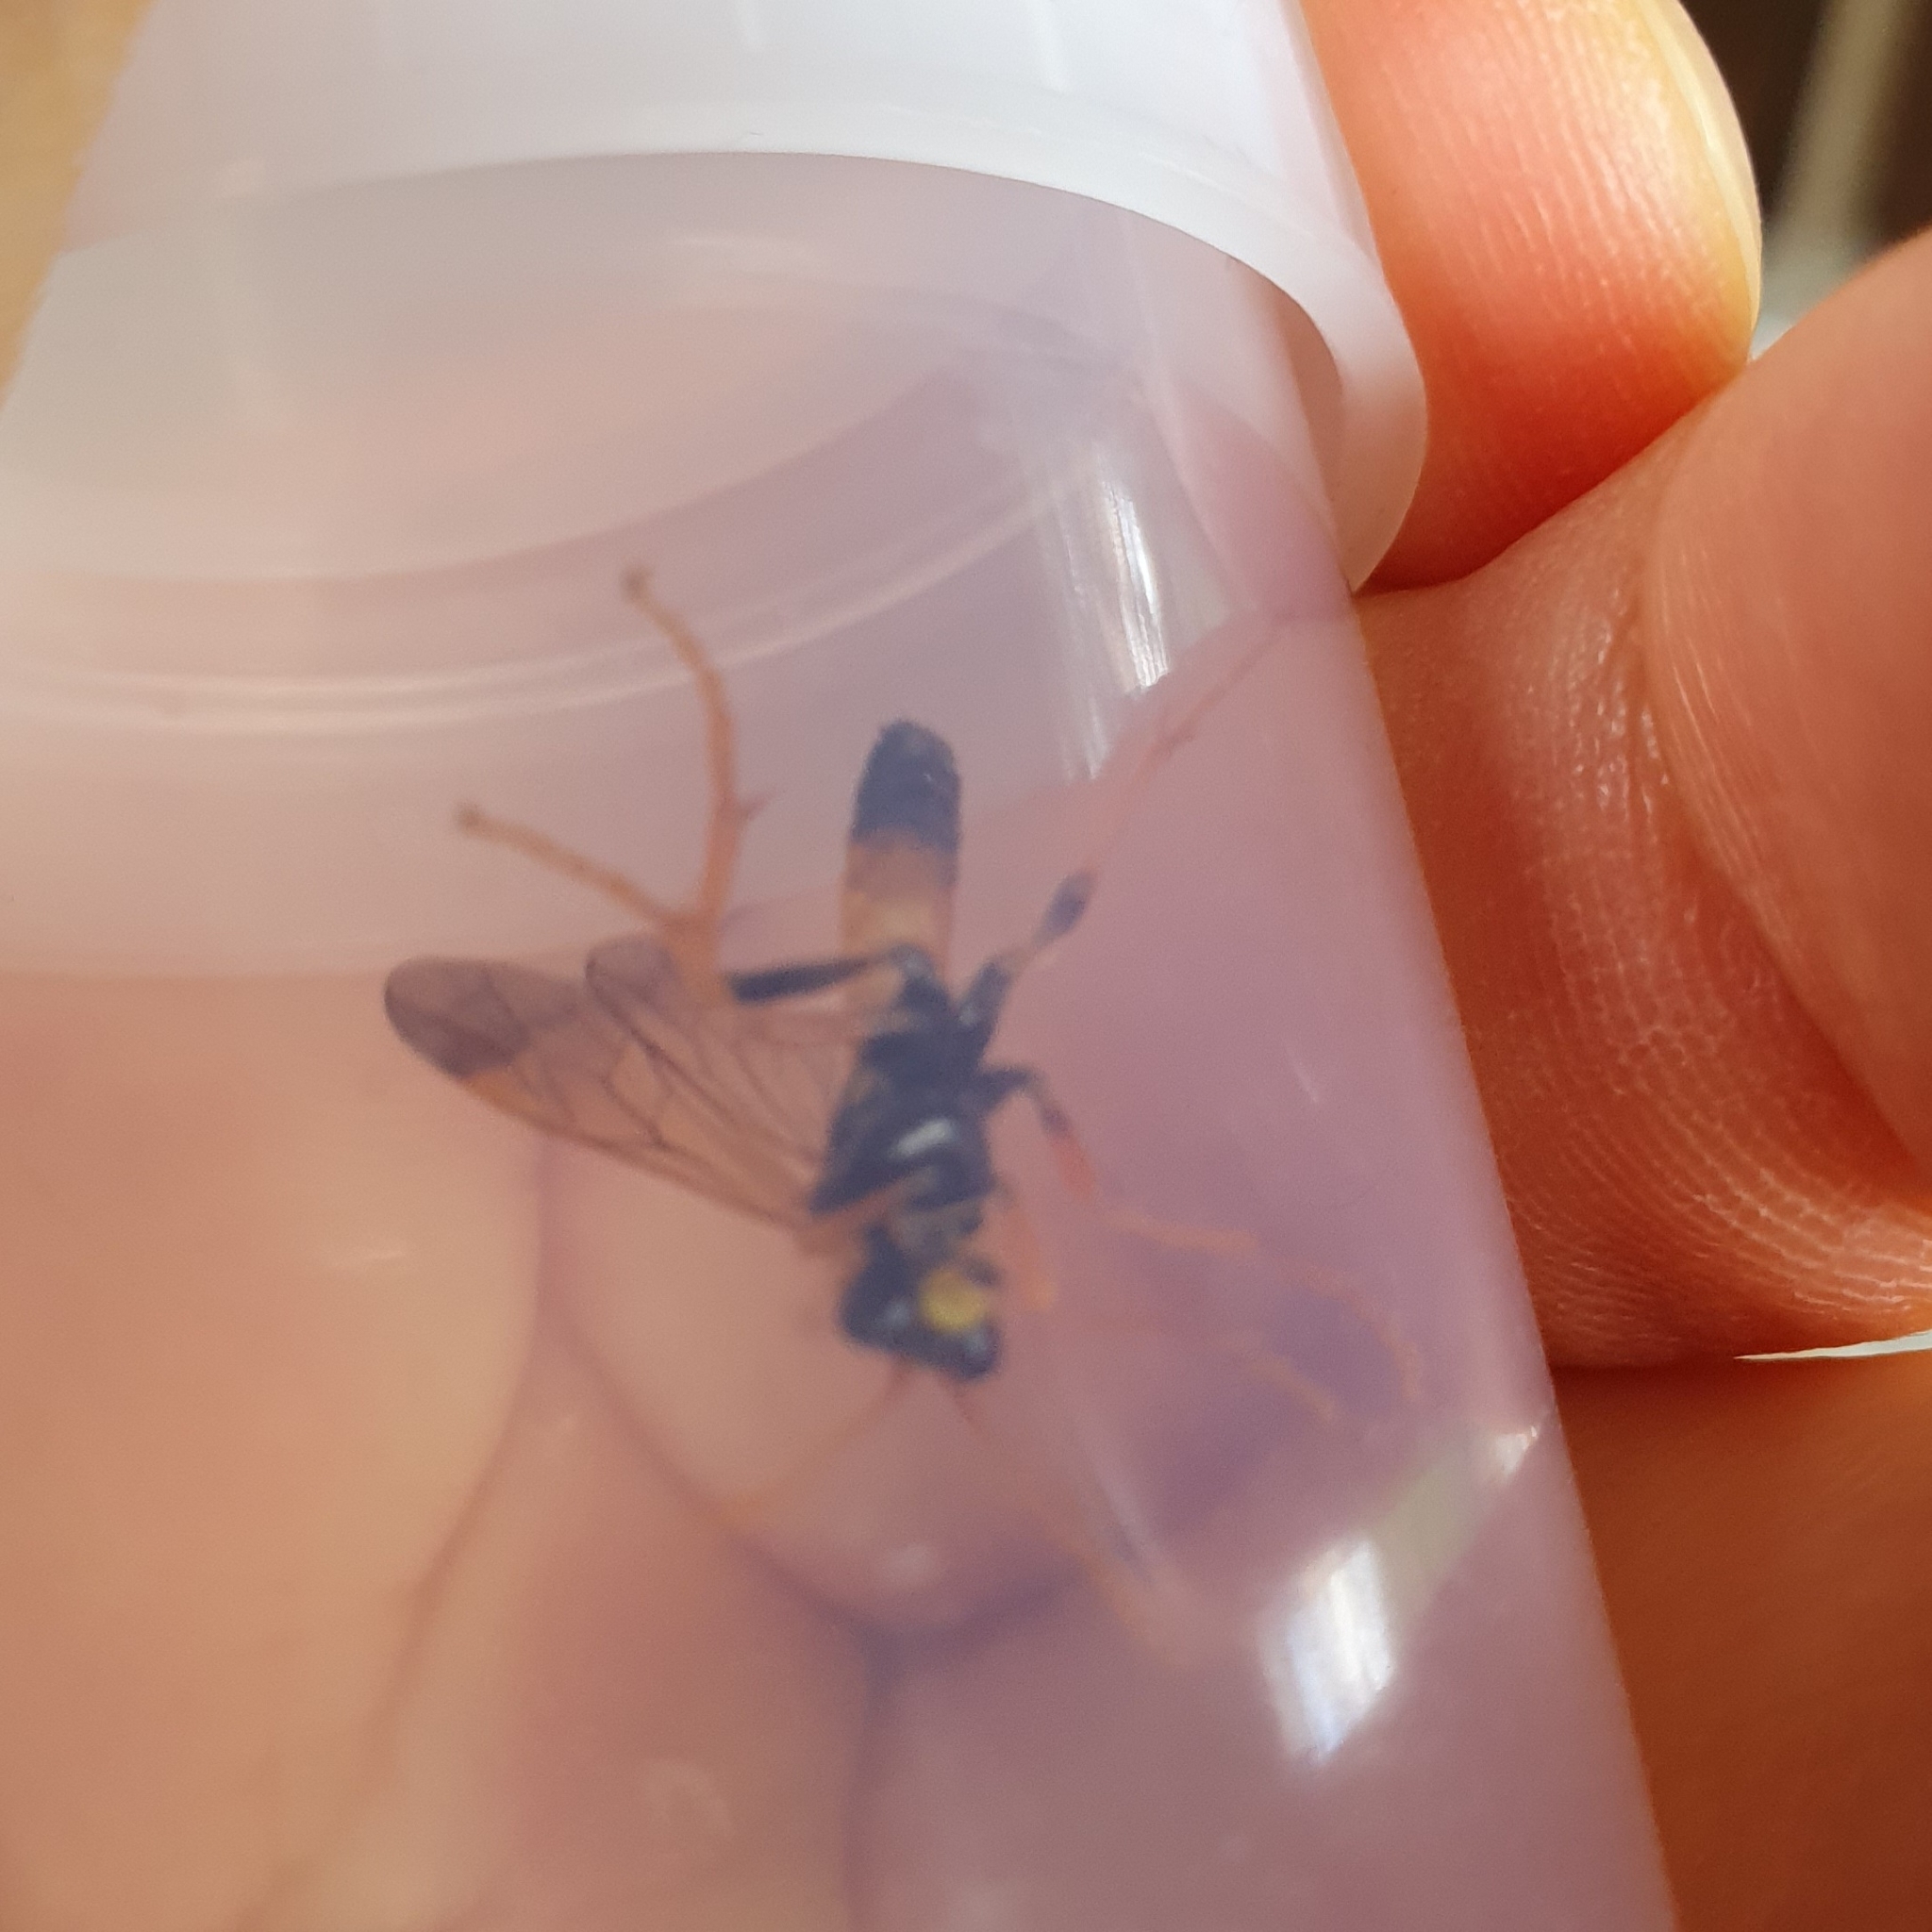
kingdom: Animalia
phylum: Arthropoda
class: Insecta
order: Hymenoptera
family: Tenthredinidae
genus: Tenthredo
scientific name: Tenthredo campestris
